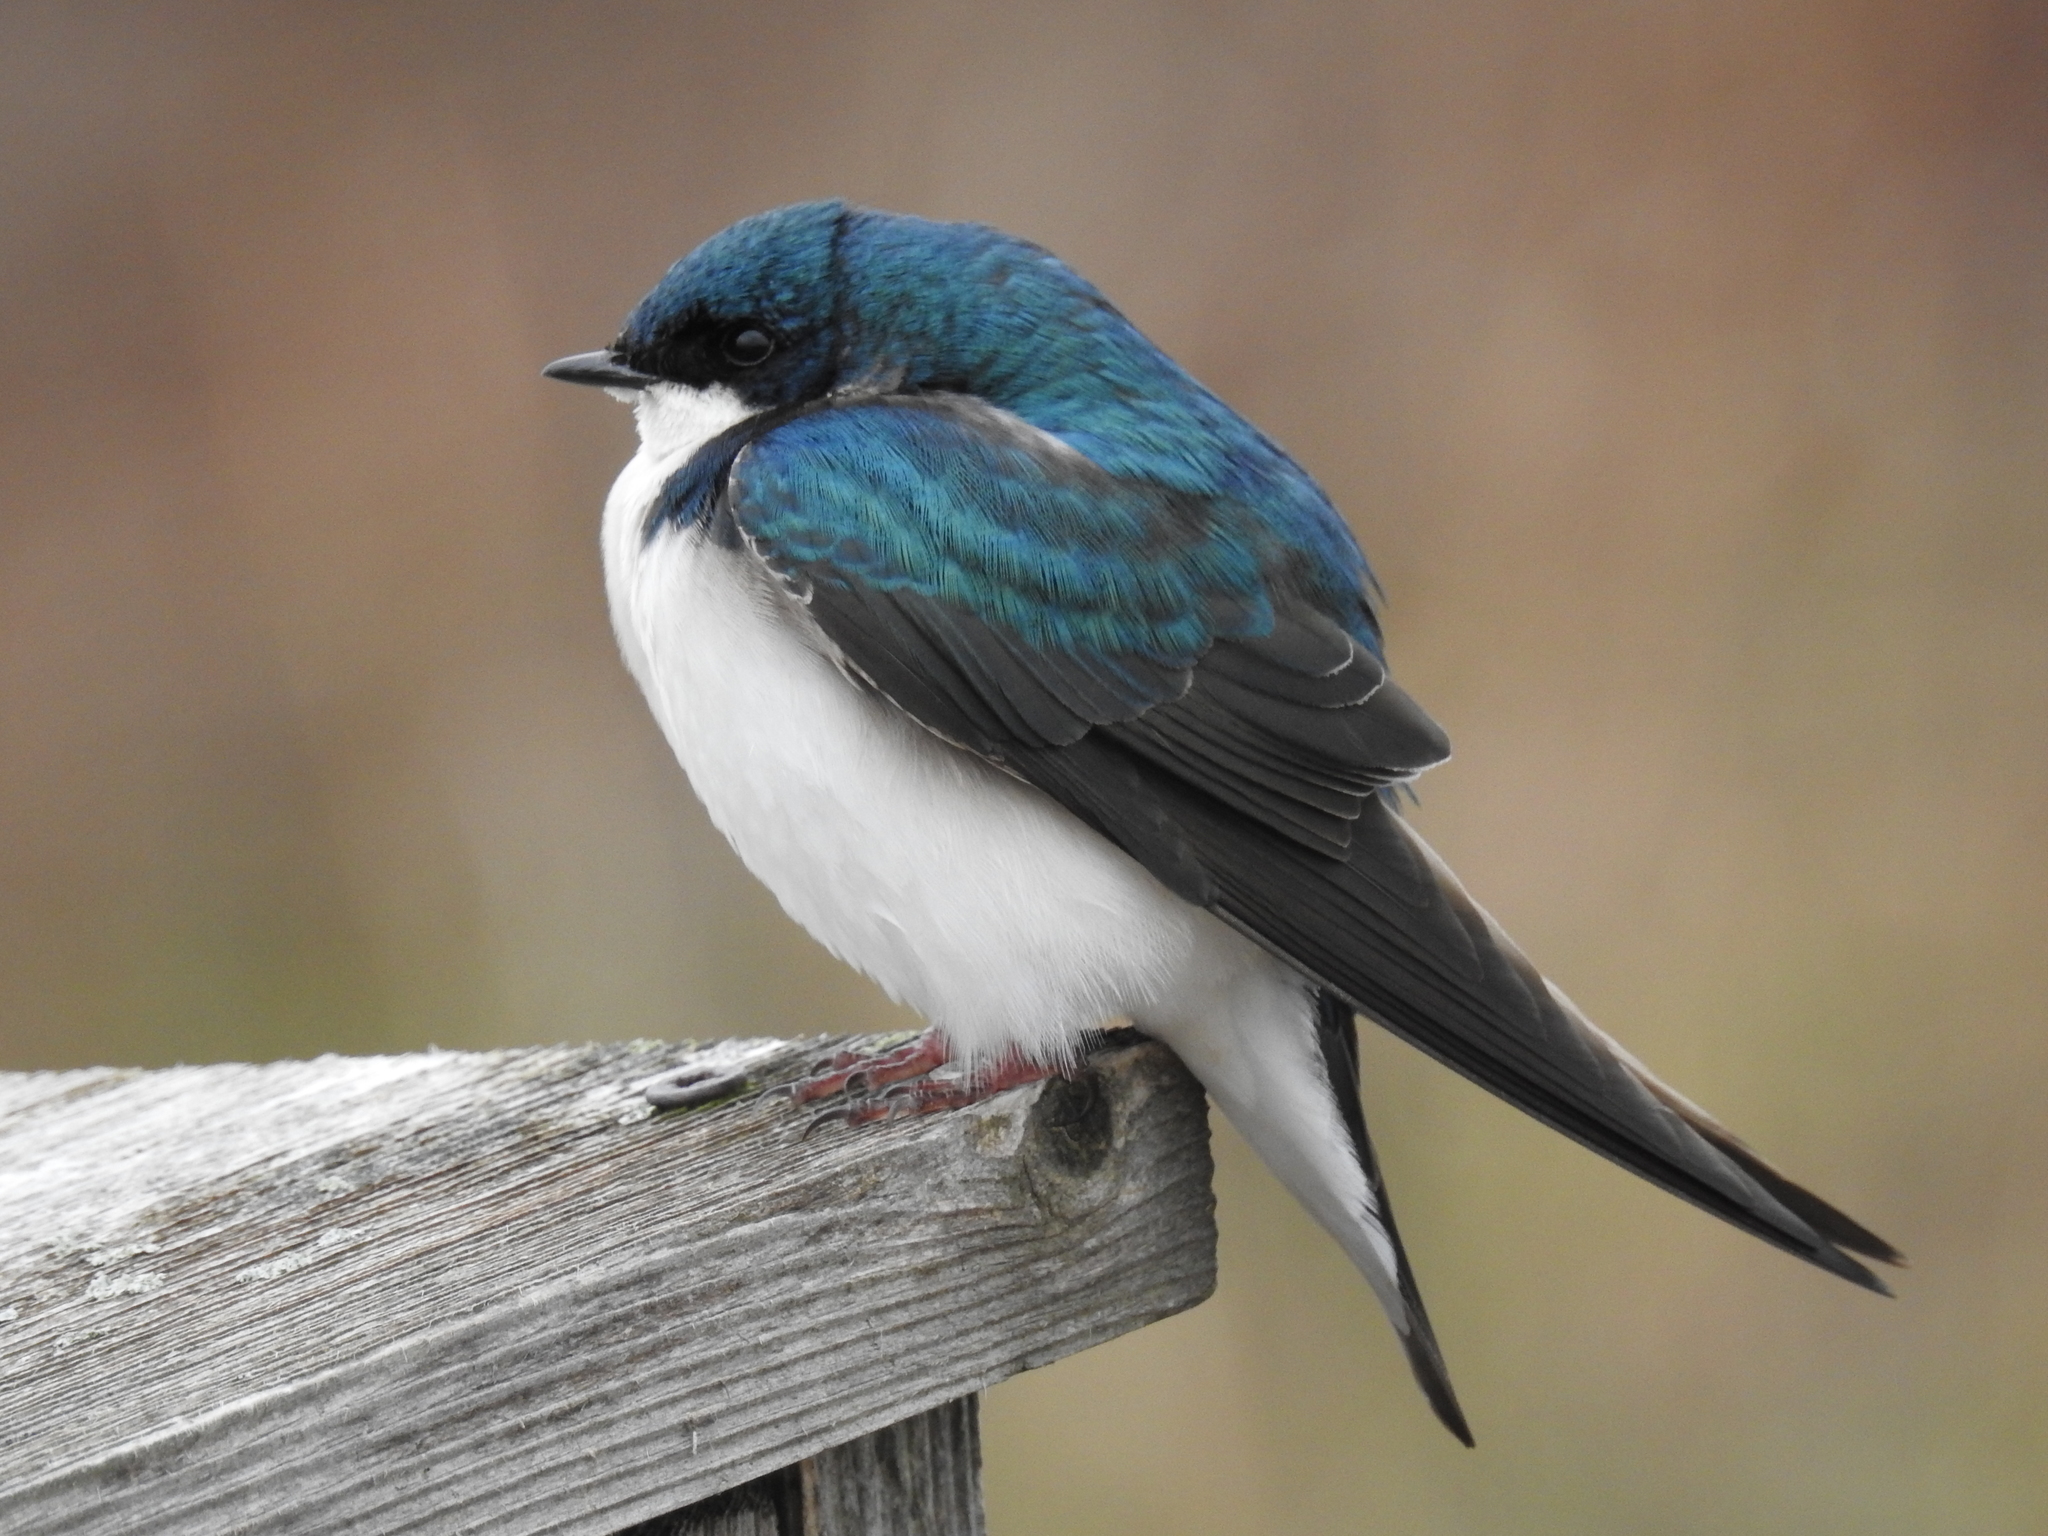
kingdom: Animalia
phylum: Chordata
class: Aves
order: Passeriformes
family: Hirundinidae
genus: Tachycineta
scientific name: Tachycineta bicolor
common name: Tree swallow
